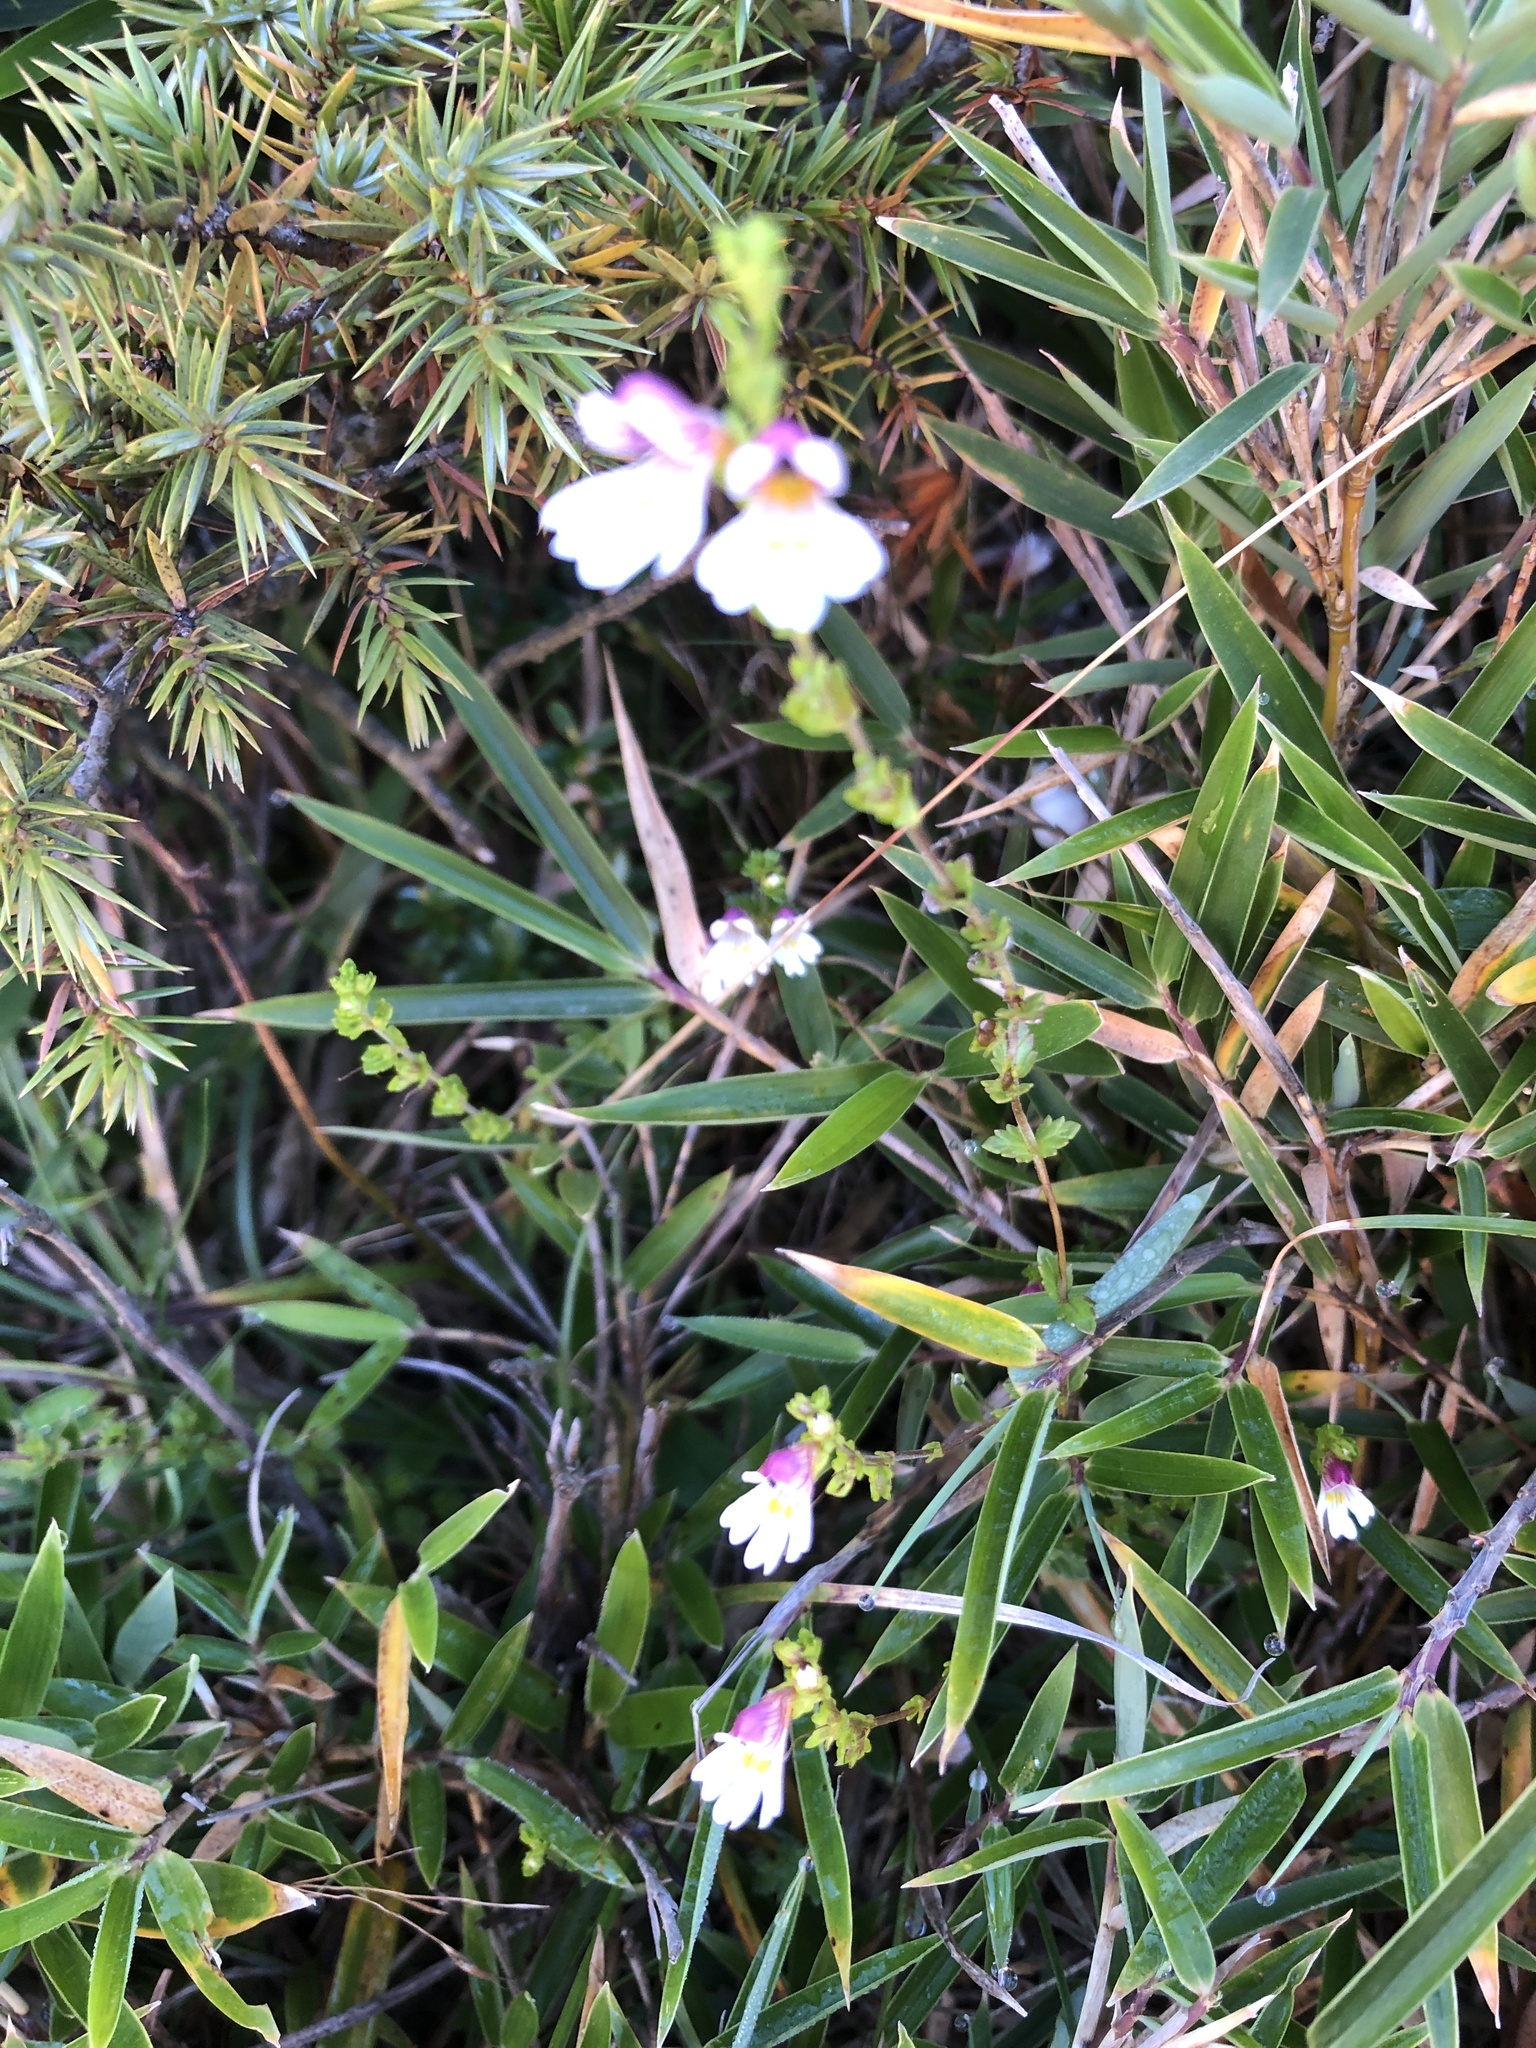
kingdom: Plantae
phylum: Tracheophyta
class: Magnoliopsida
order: Lamiales
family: Orobanchaceae
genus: Euphrasia
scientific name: Euphrasia transmorrisonensis
